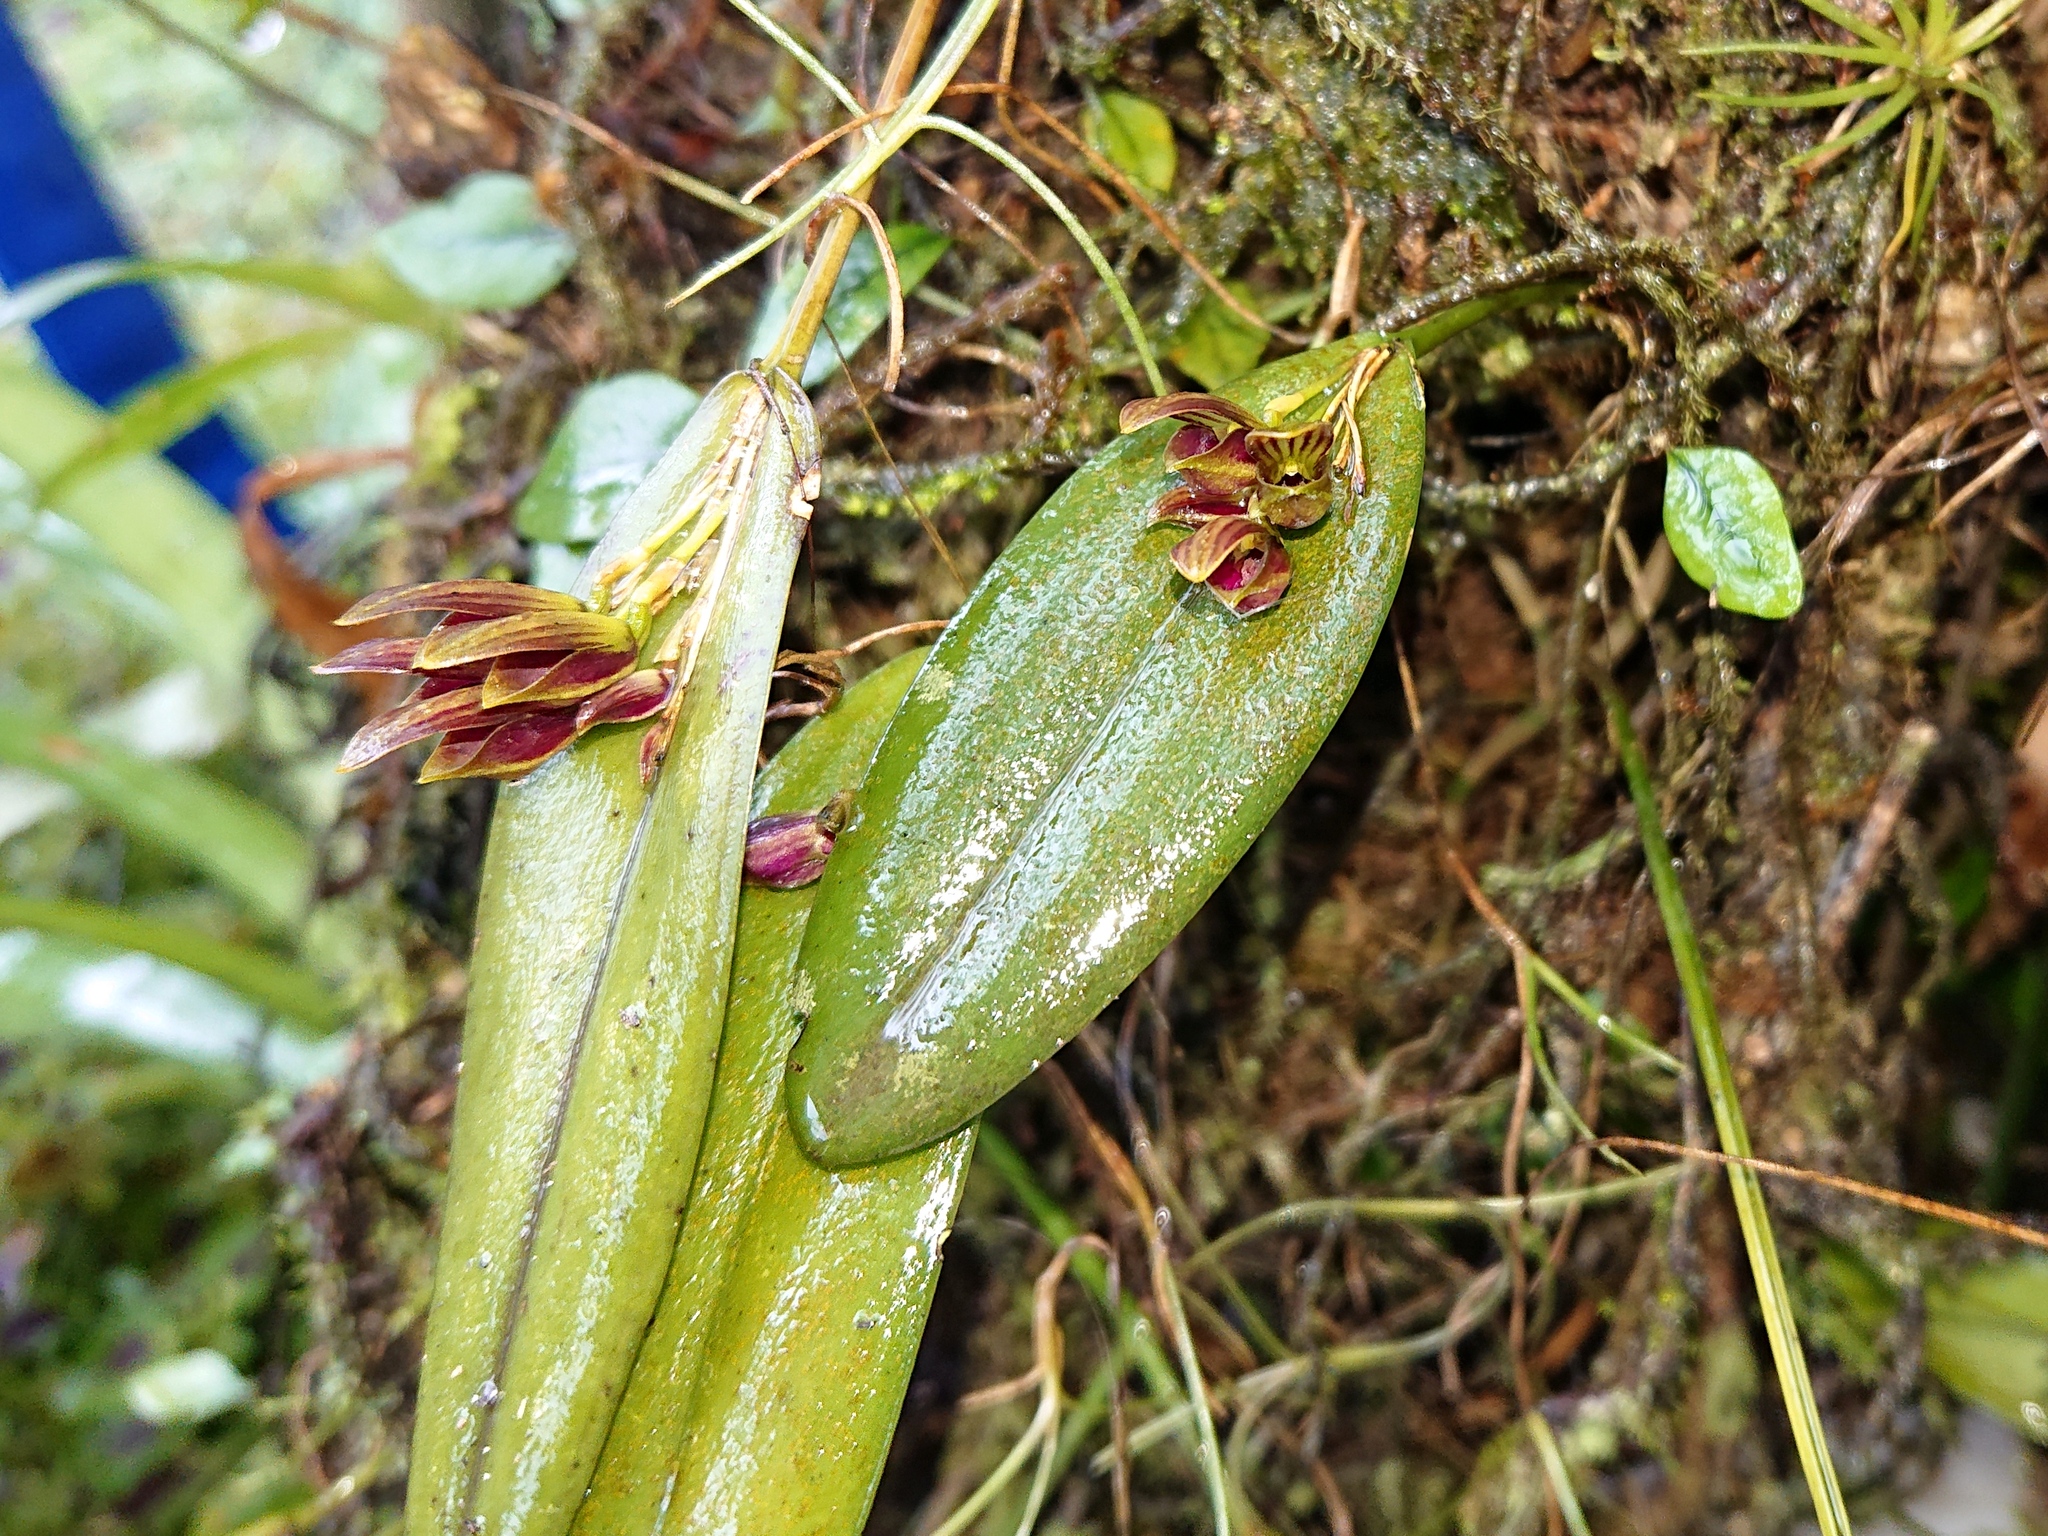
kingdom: Plantae
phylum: Tracheophyta
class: Liliopsida
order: Asparagales
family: Orchidaceae
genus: Acianthera
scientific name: Acianthera glanduligera
